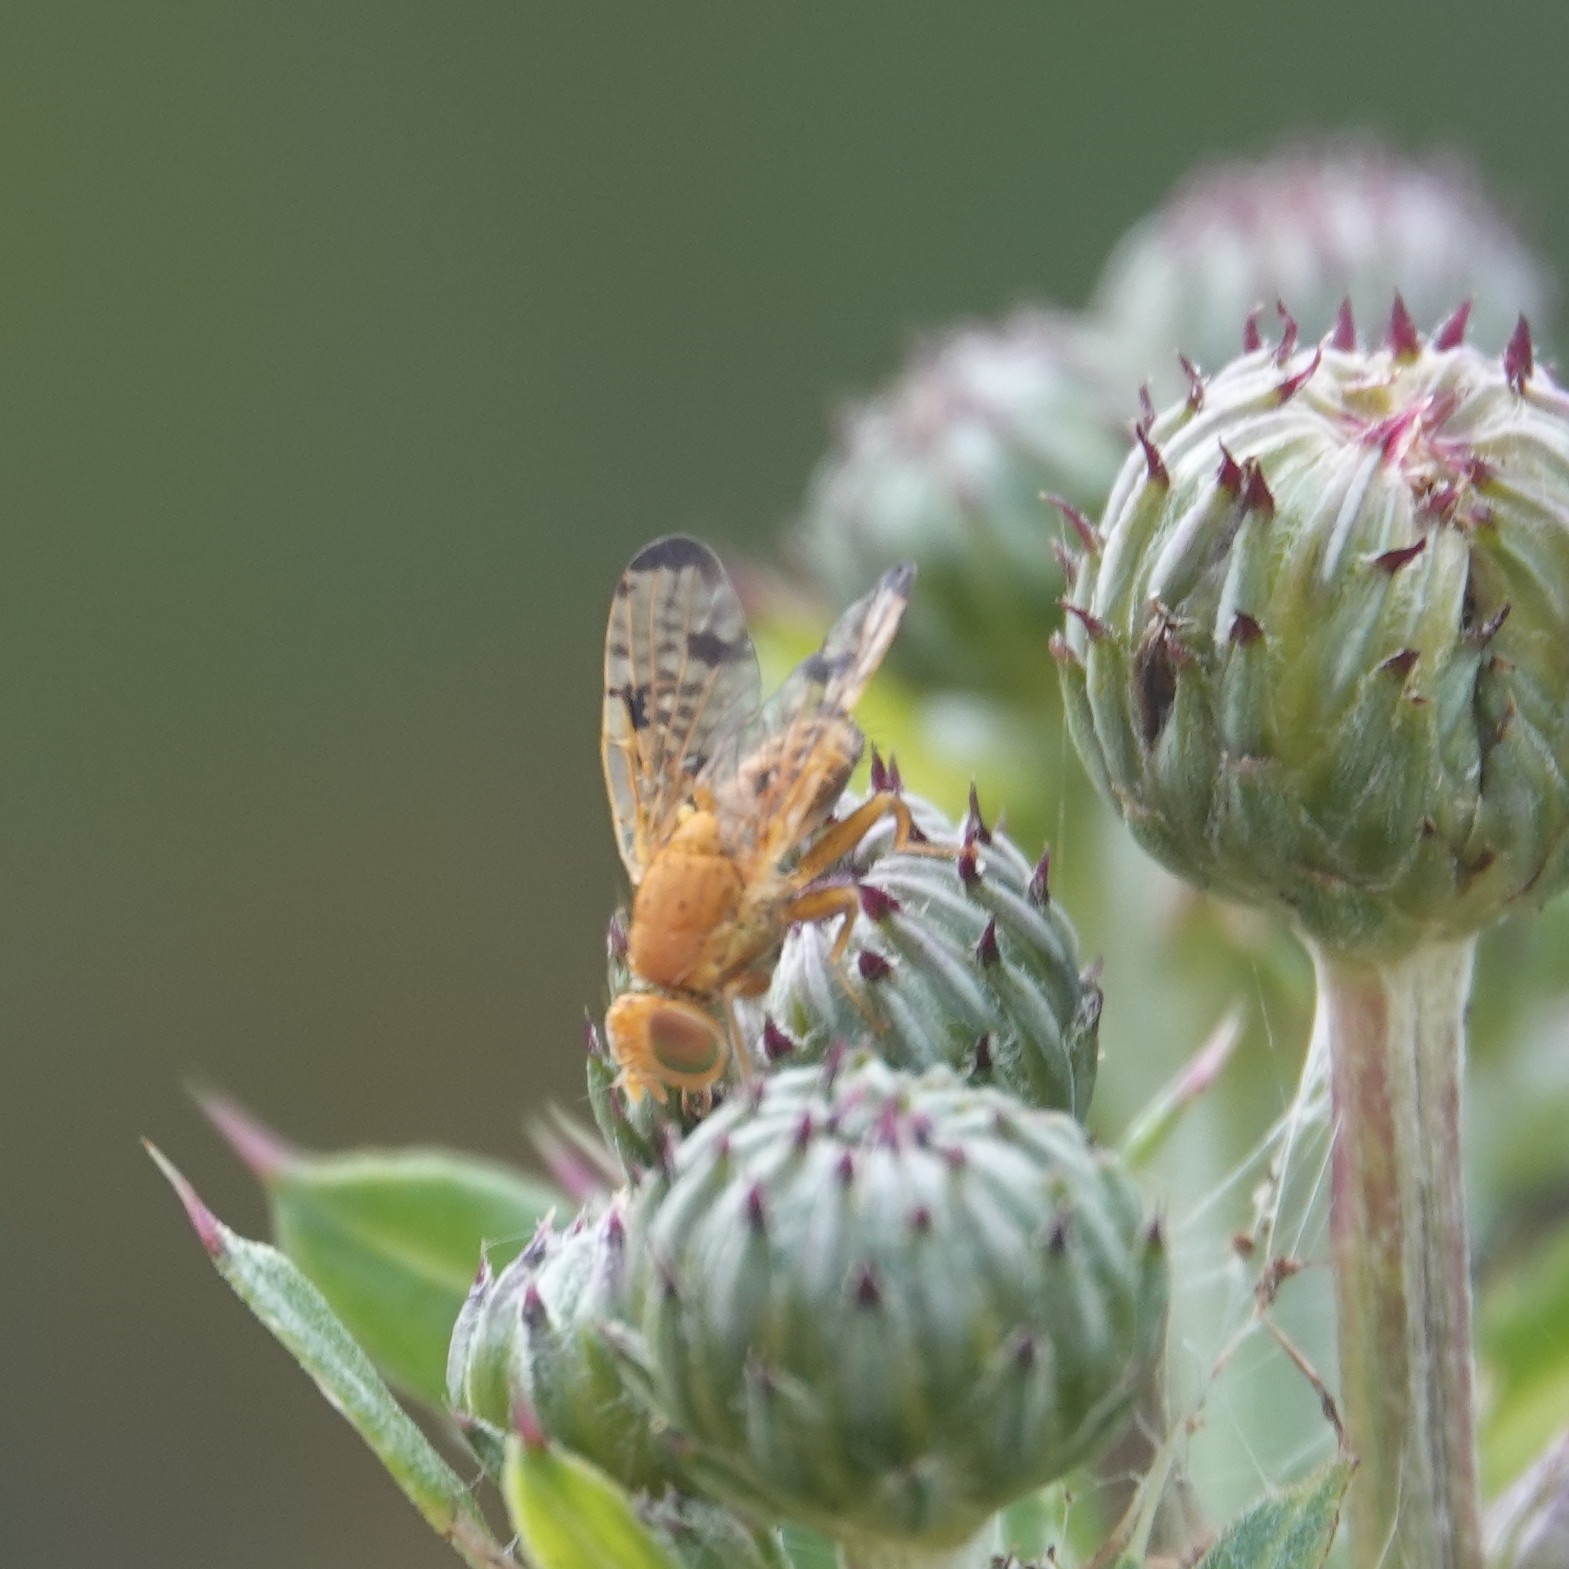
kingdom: Animalia
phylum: Arthropoda
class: Insecta
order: Diptera
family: Tephritidae
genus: Xyphosia
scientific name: Xyphosia miliaria
